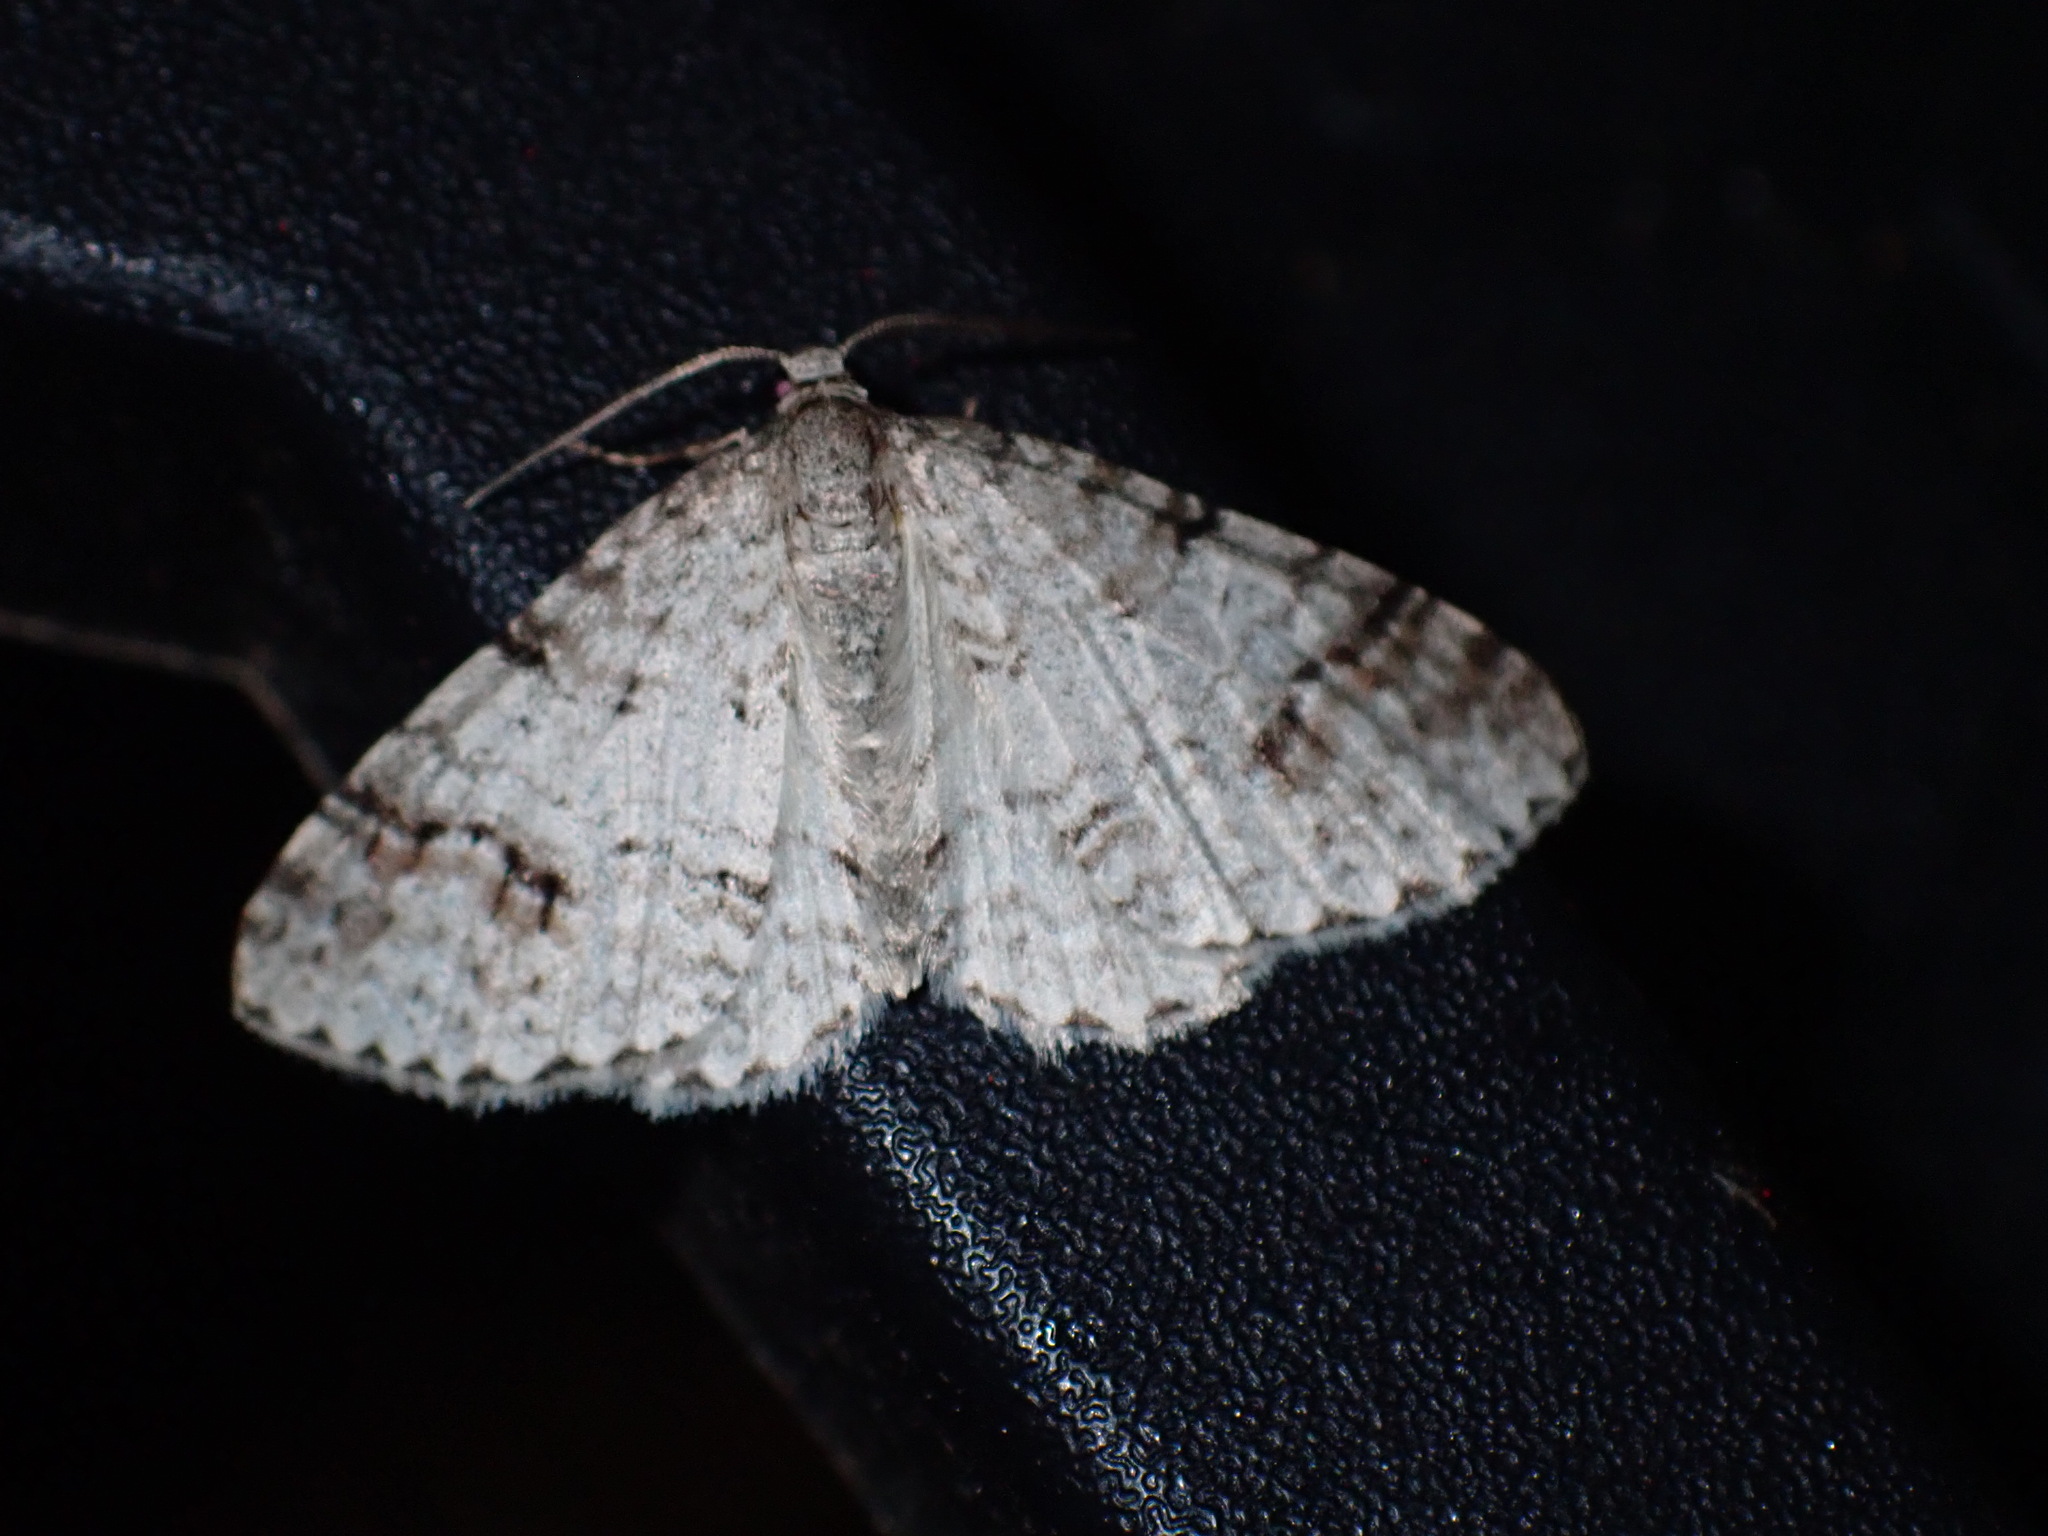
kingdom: Animalia
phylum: Arthropoda
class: Insecta
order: Lepidoptera
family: Geometridae
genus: Venusia
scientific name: Venusia cambrica
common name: Welsh wave
